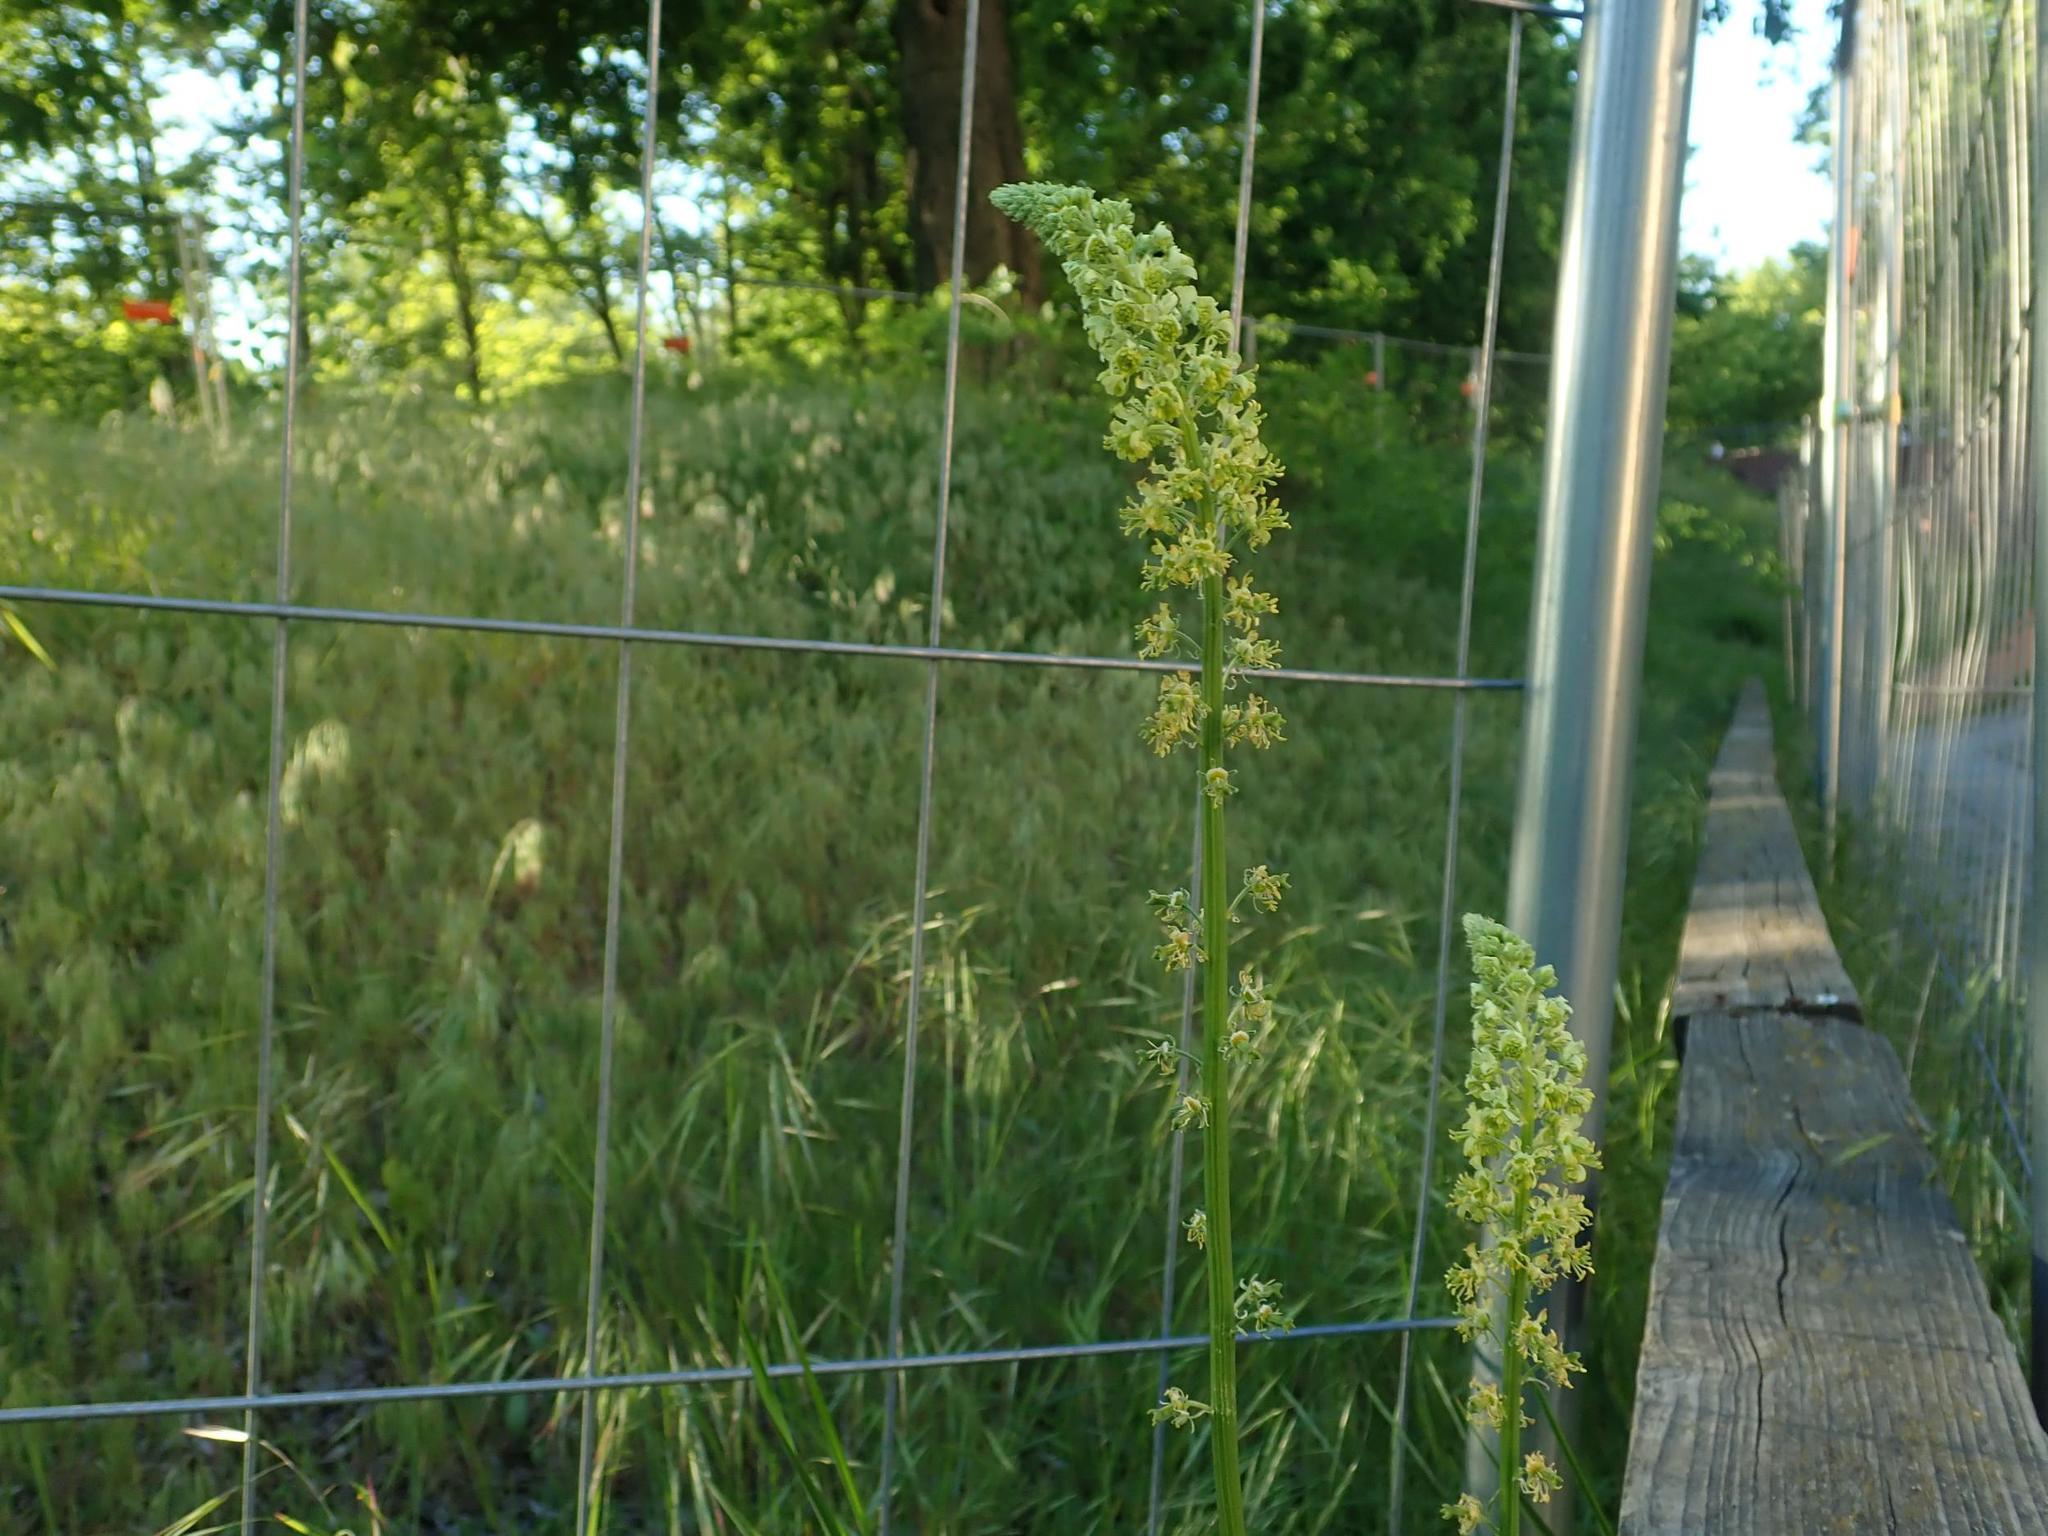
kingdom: Plantae
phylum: Tracheophyta
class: Magnoliopsida
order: Brassicales
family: Resedaceae
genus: Reseda
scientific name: Reseda lutea
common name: Wild mignonette
